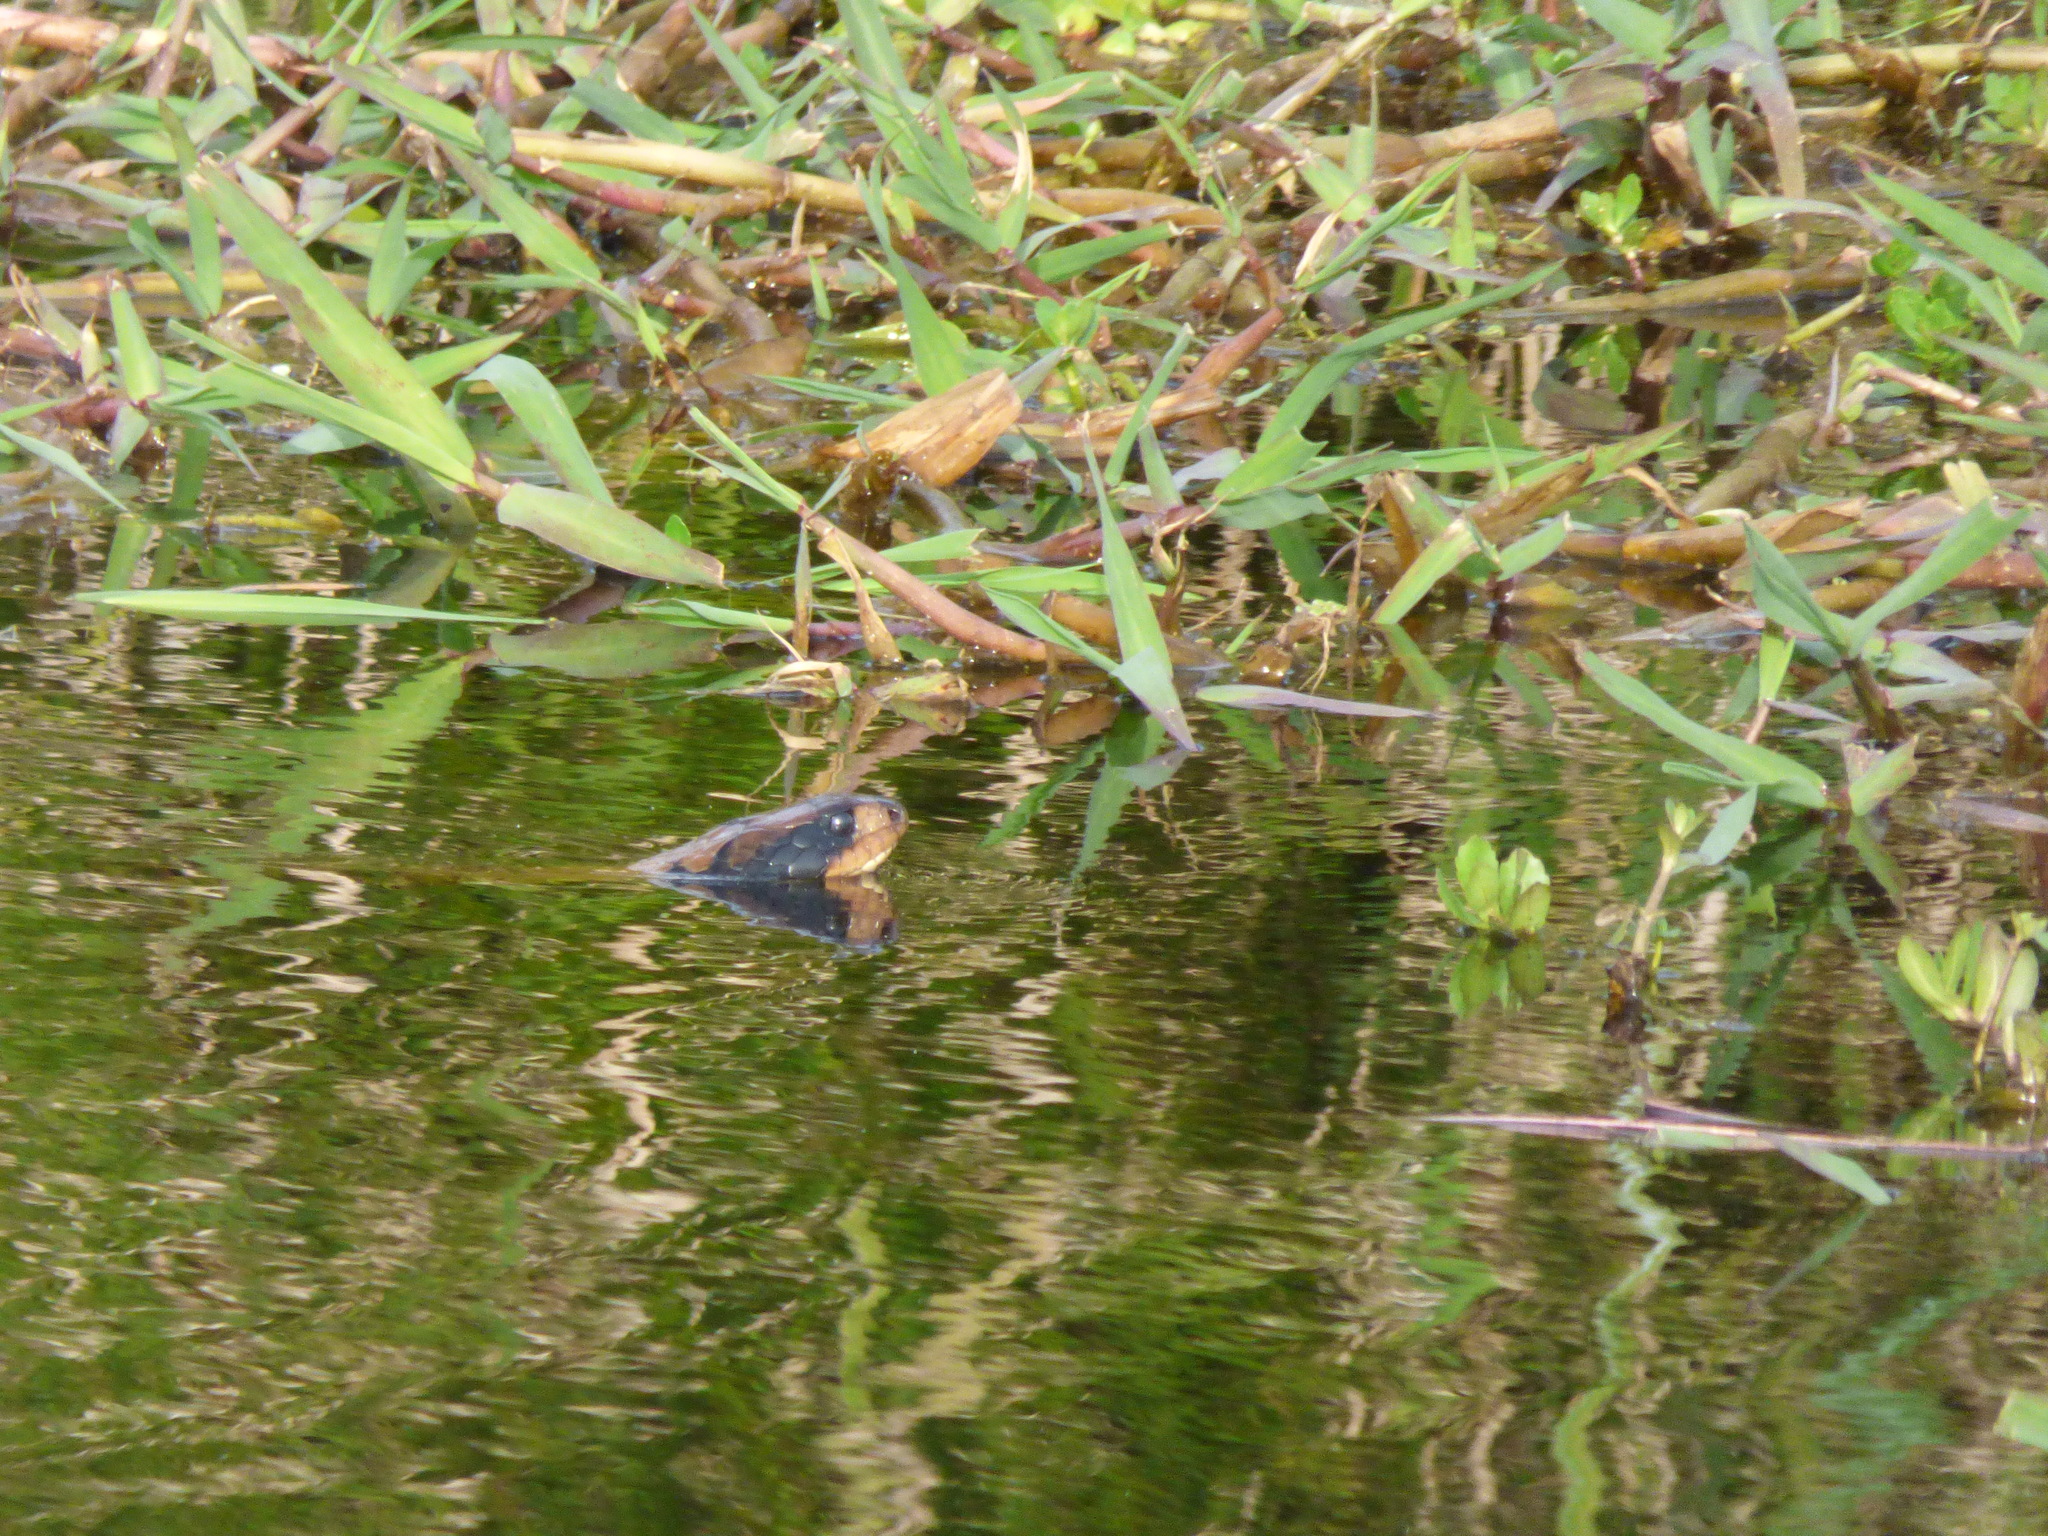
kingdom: Animalia
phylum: Chordata
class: Squamata
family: Colubridae
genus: Hydrodynastes
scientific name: Hydrodynastes gigas
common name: False water cobra
